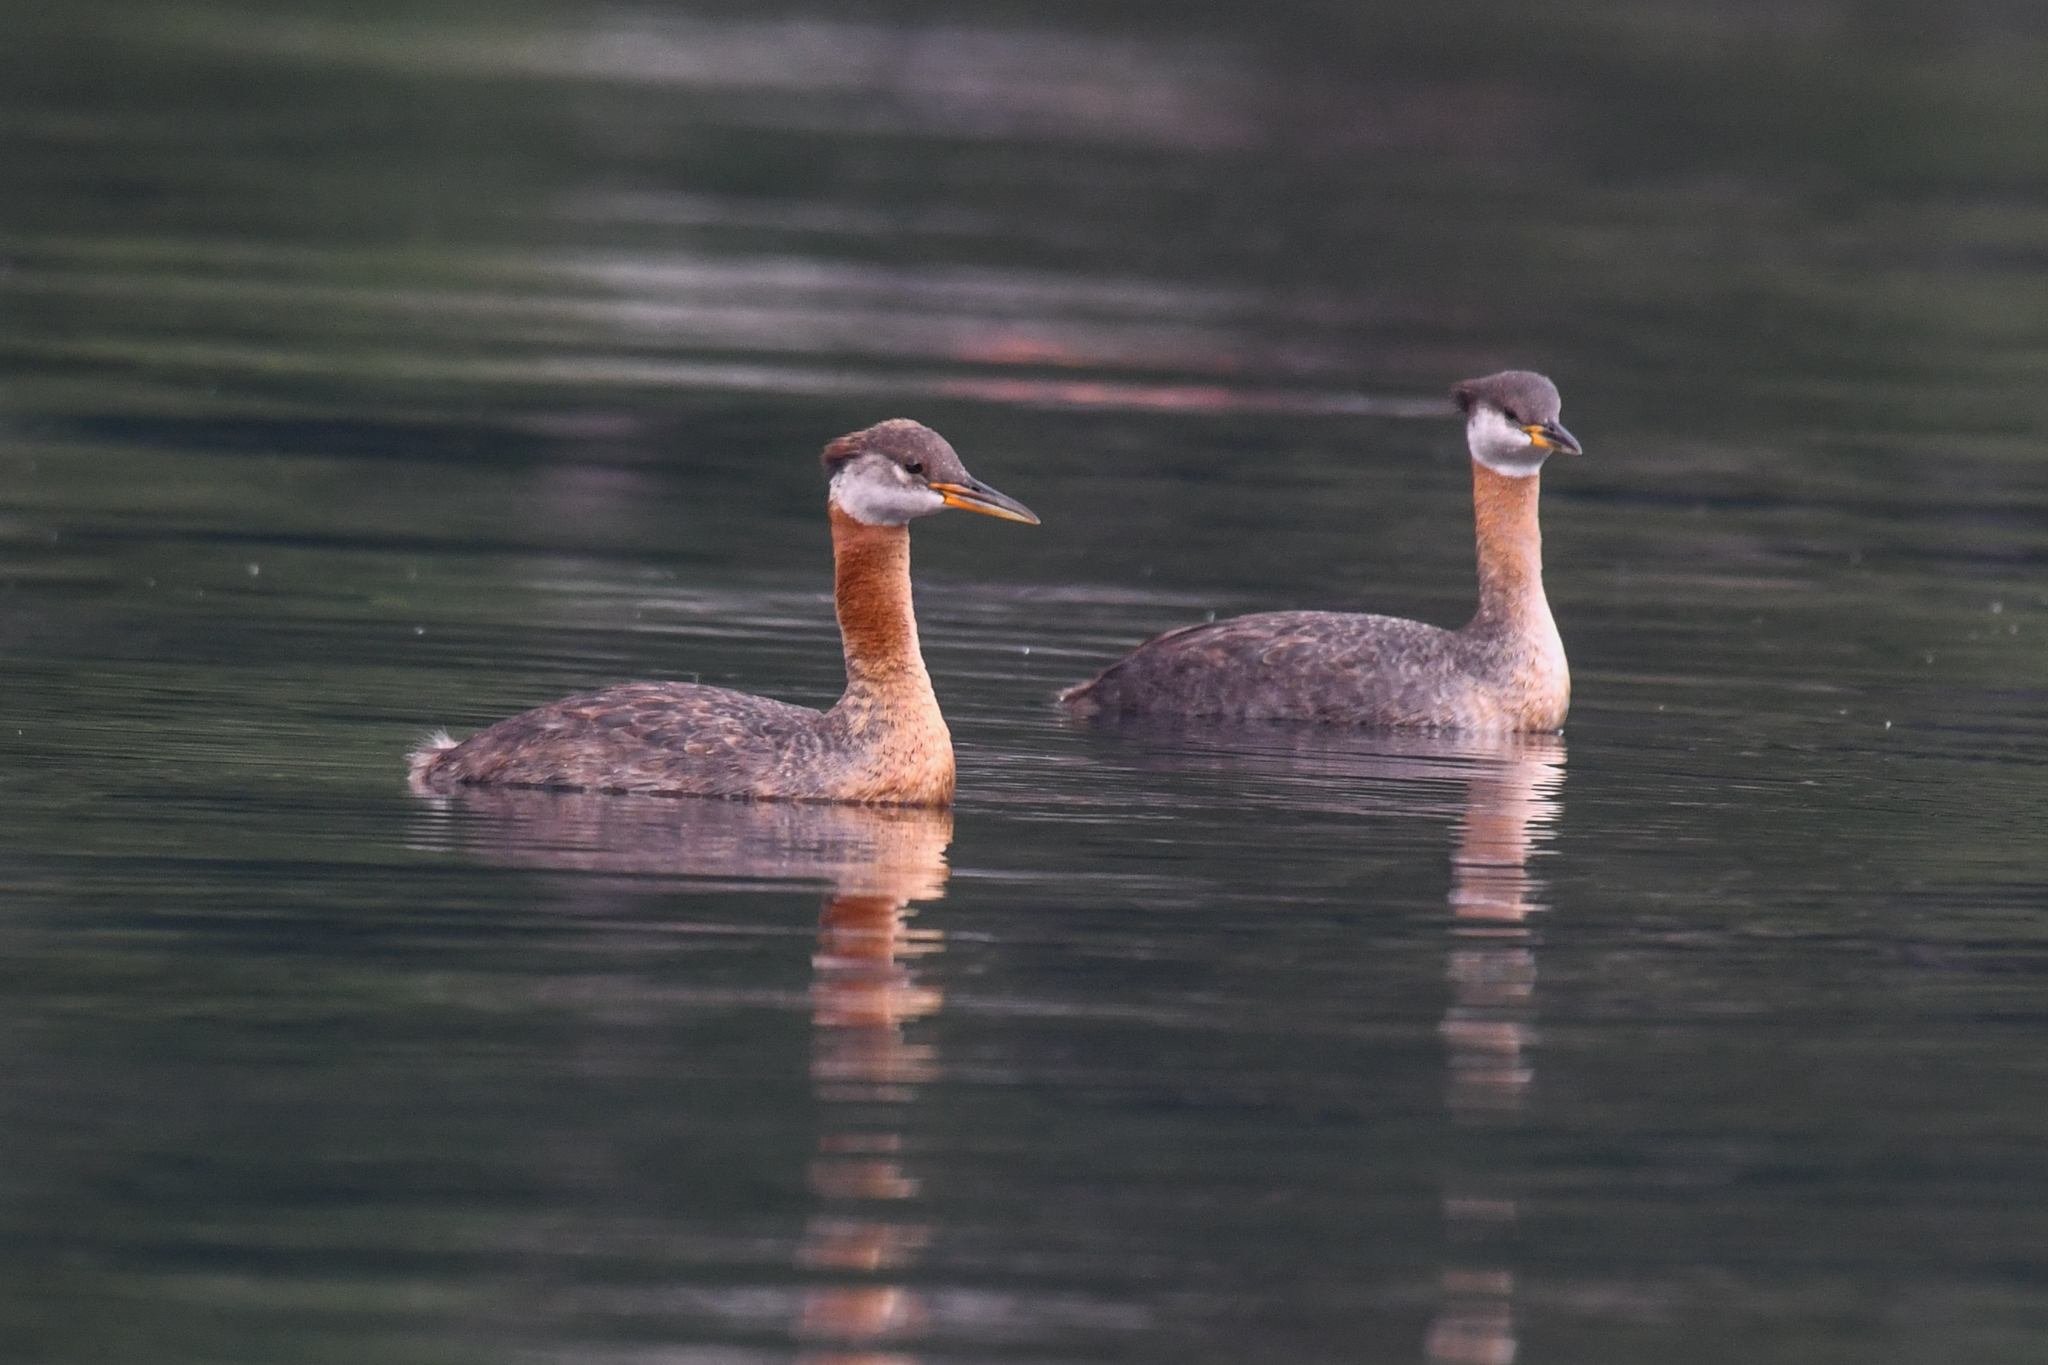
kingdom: Animalia
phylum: Chordata
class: Aves
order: Podicipediformes
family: Podicipedidae
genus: Podiceps
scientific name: Podiceps grisegena
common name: Red-necked grebe
